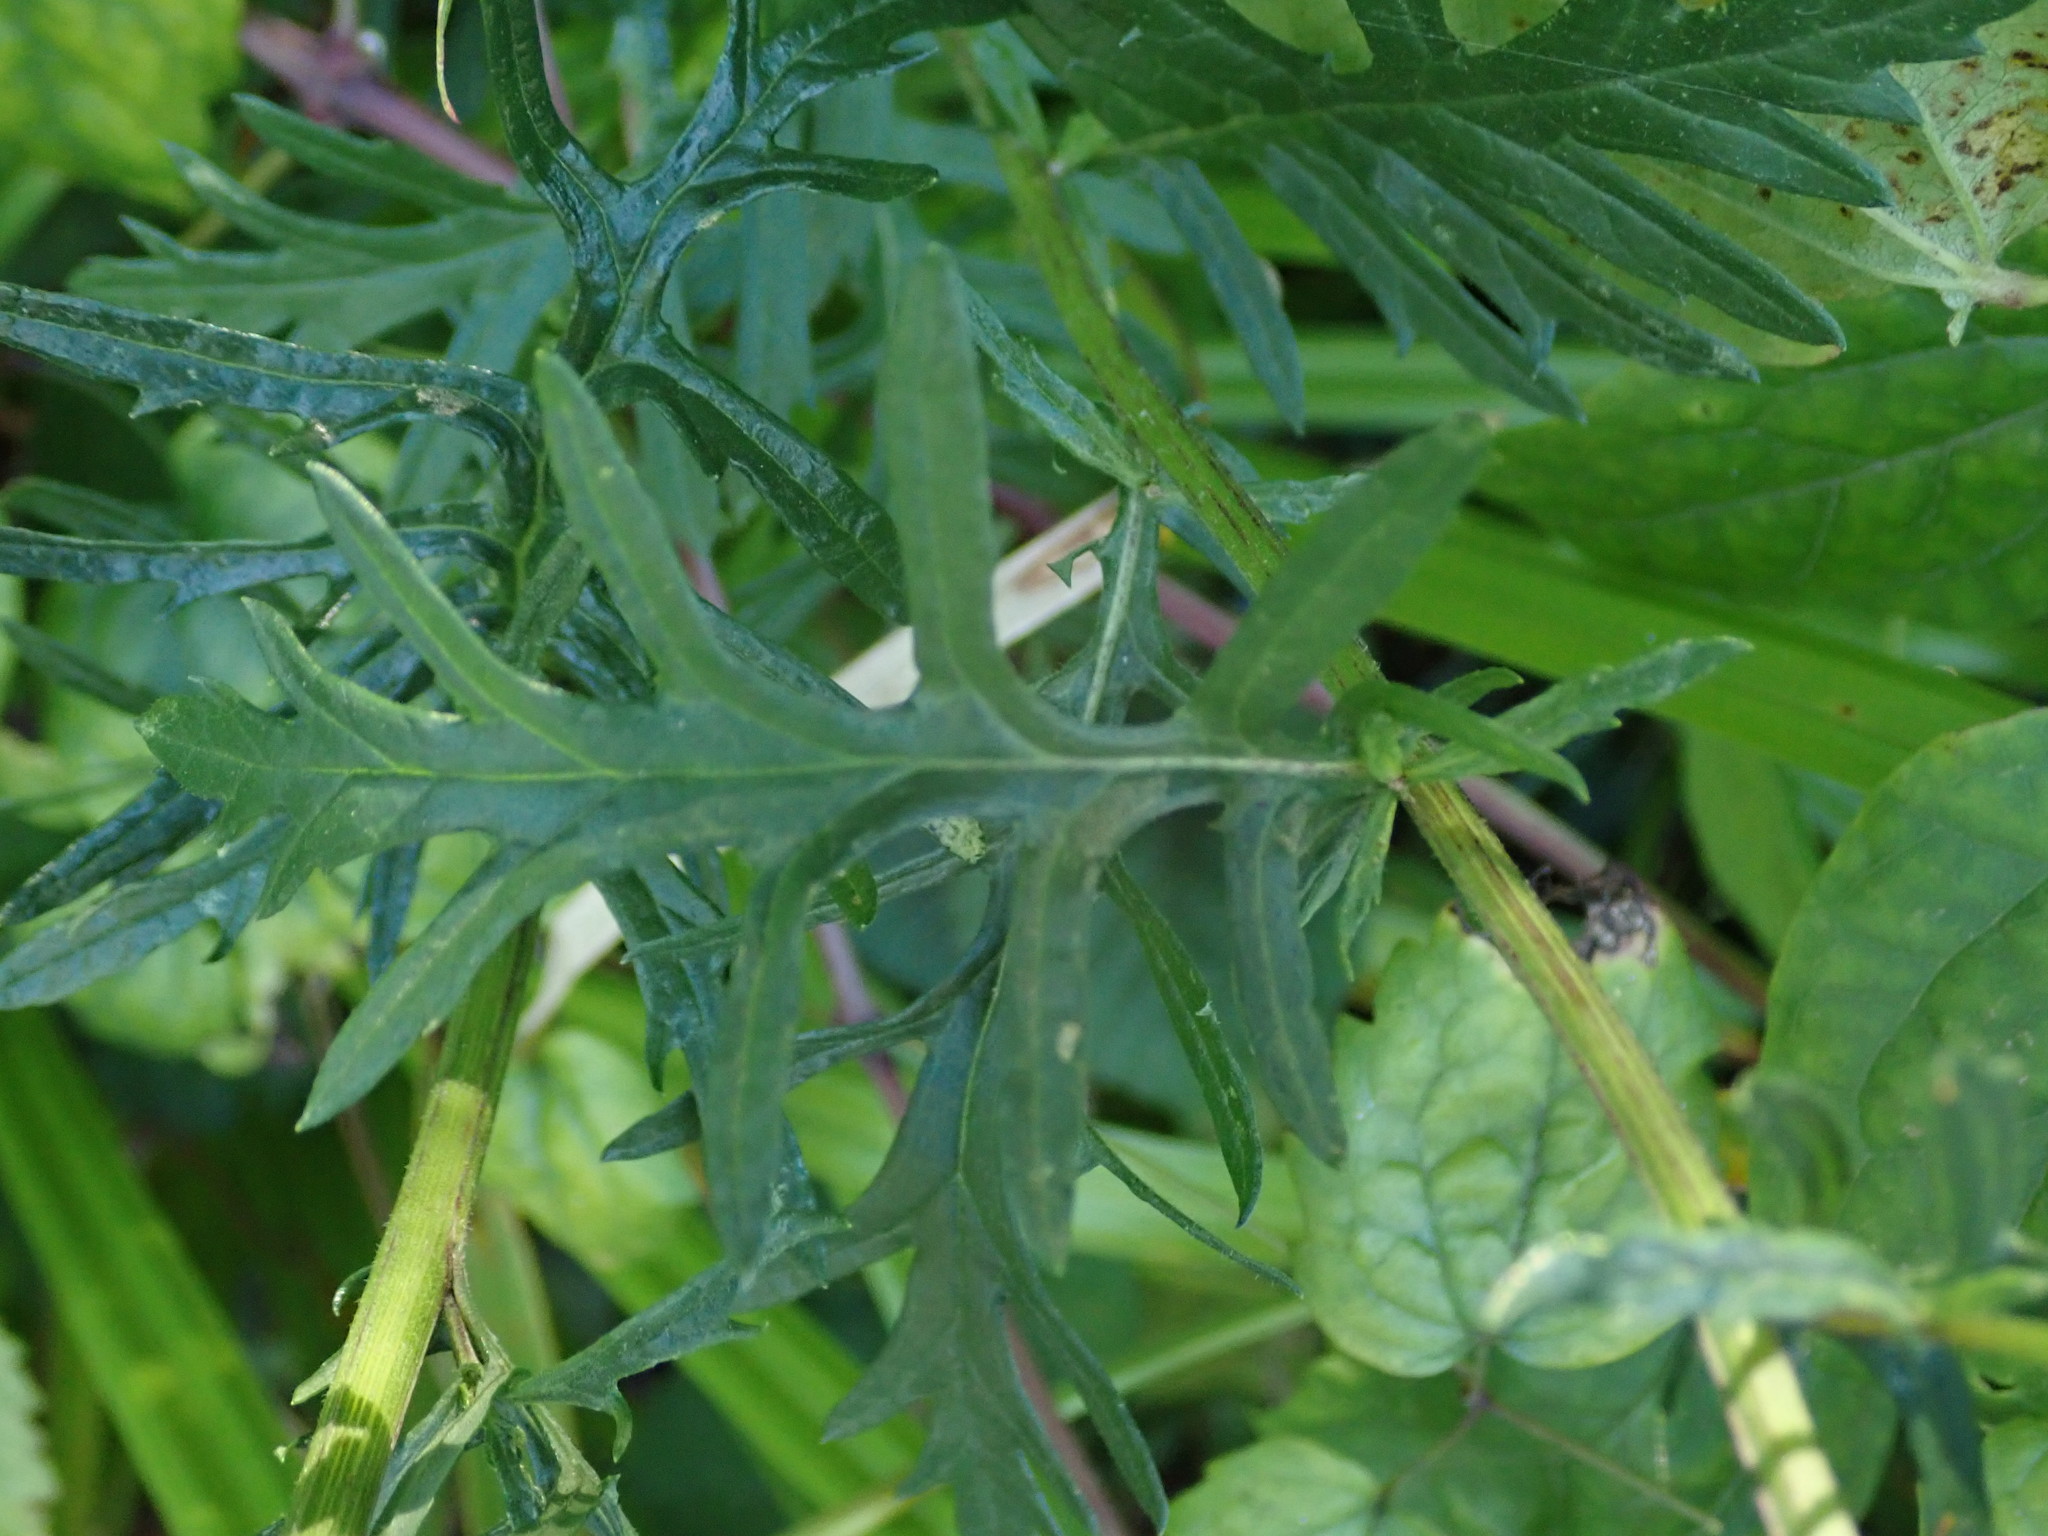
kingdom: Plantae
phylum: Tracheophyta
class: Magnoliopsida
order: Asterales
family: Asteraceae
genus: Jacobaea
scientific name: Jacobaea erucifolia
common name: Hoary ragwort
